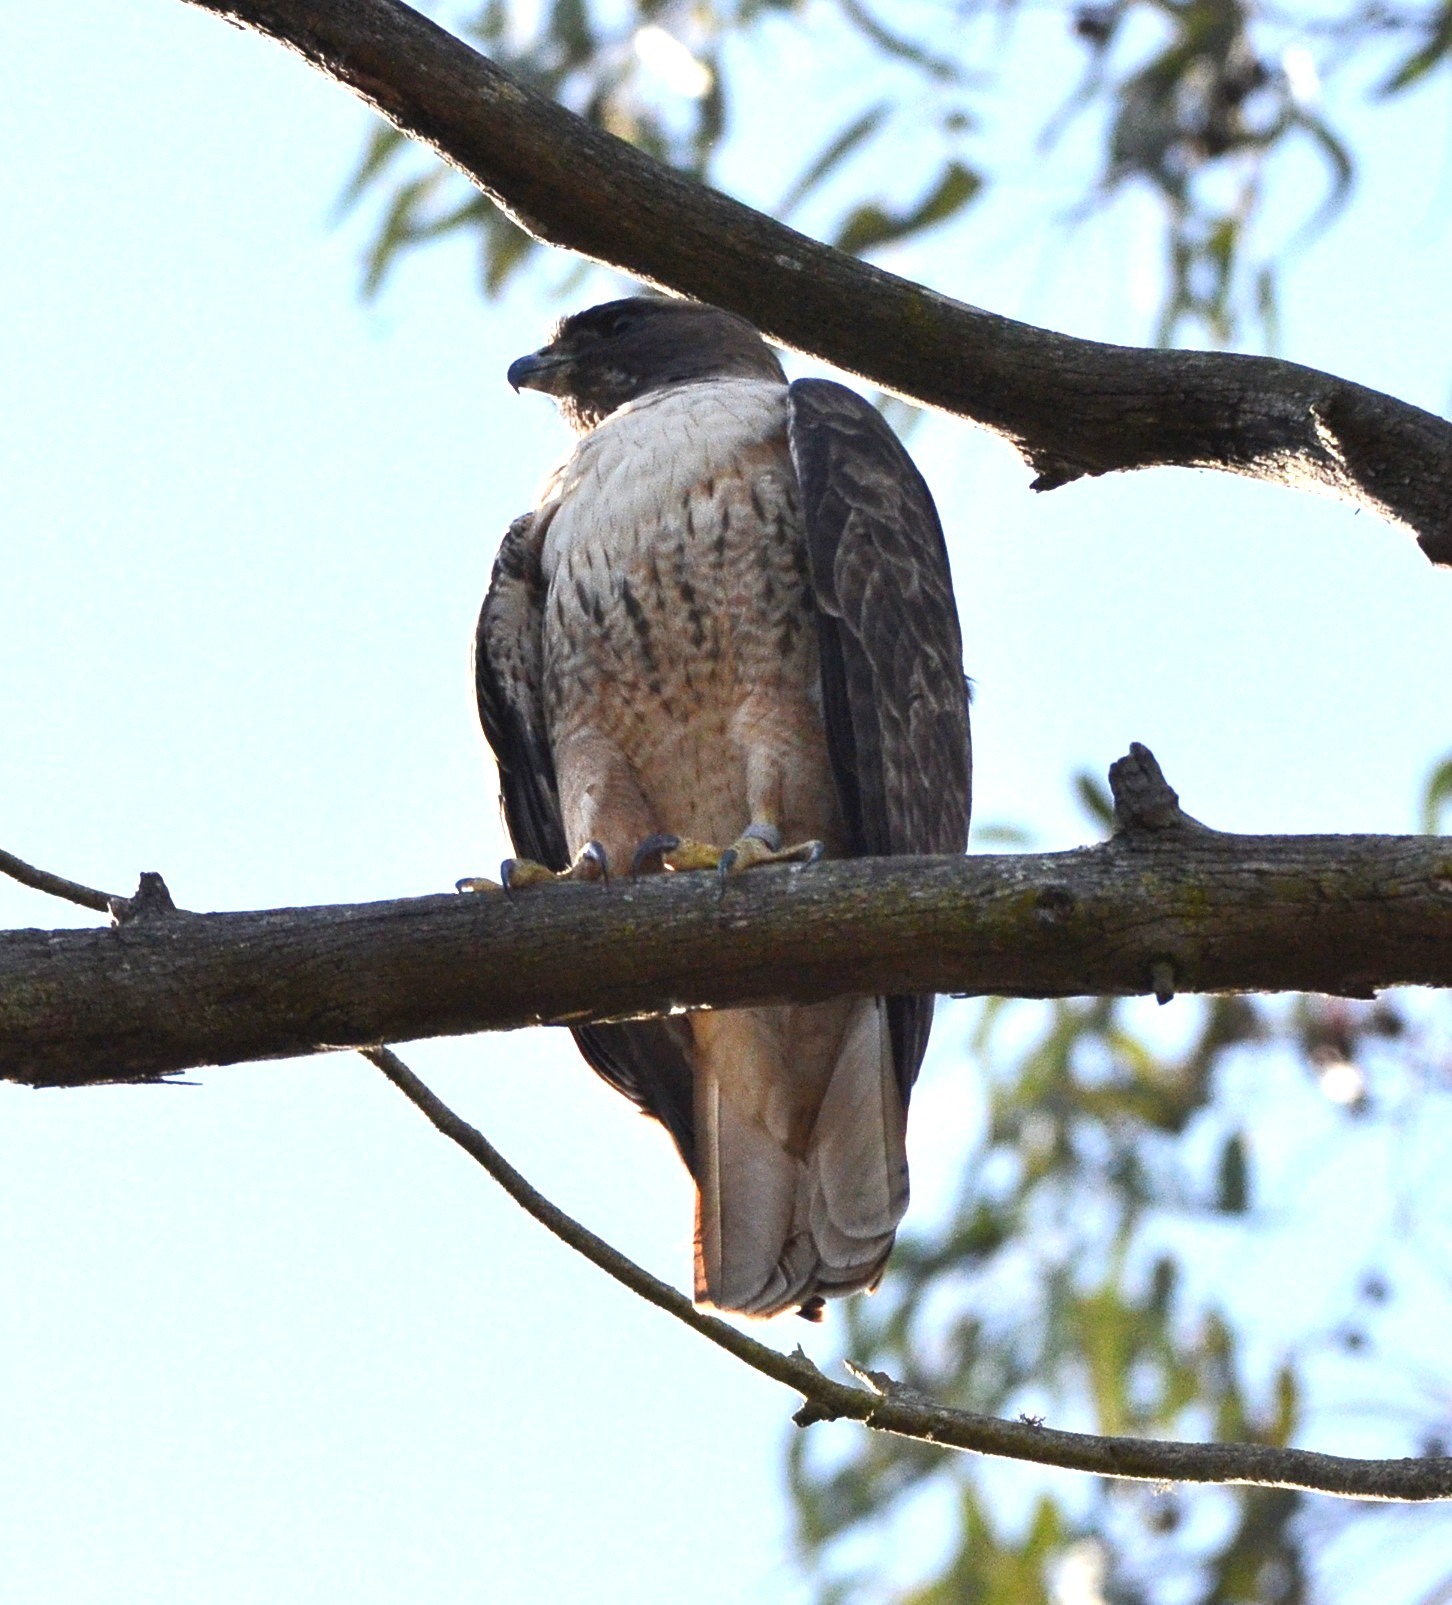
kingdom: Animalia
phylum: Chordata
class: Aves
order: Accipitriformes
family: Accipitridae
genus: Buteo
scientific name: Buteo jamaicensis
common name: Red-tailed hawk
